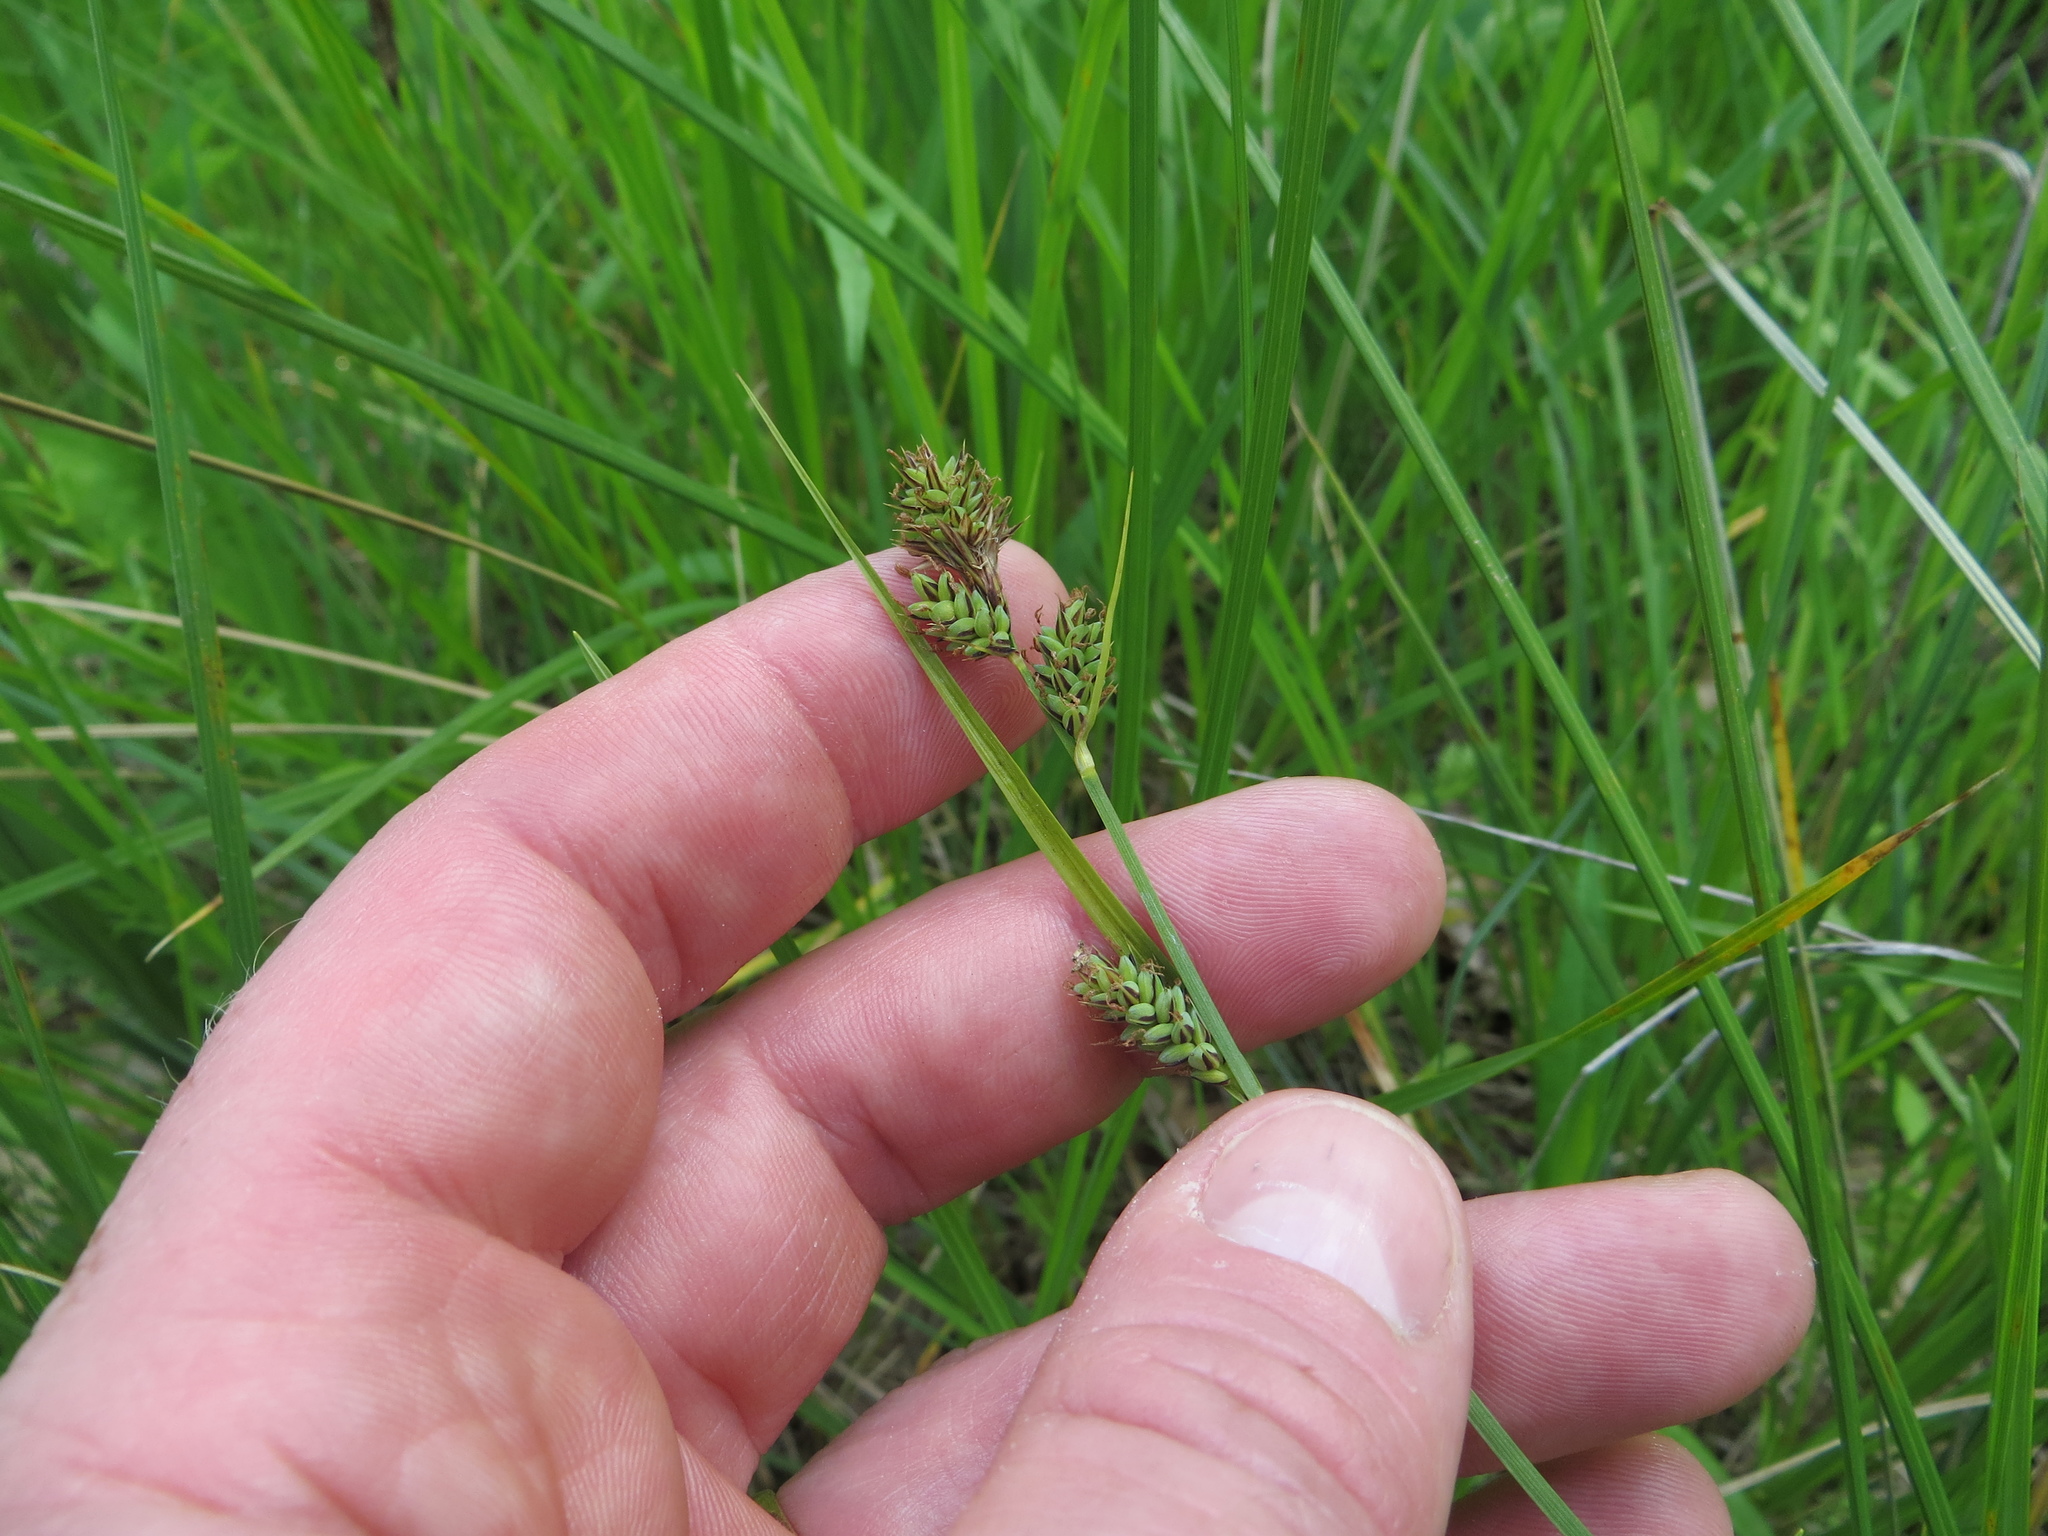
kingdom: Plantae
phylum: Tracheophyta
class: Liliopsida
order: Poales
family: Cyperaceae
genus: Carex
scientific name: Carex buxbaumii
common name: Club sedge
